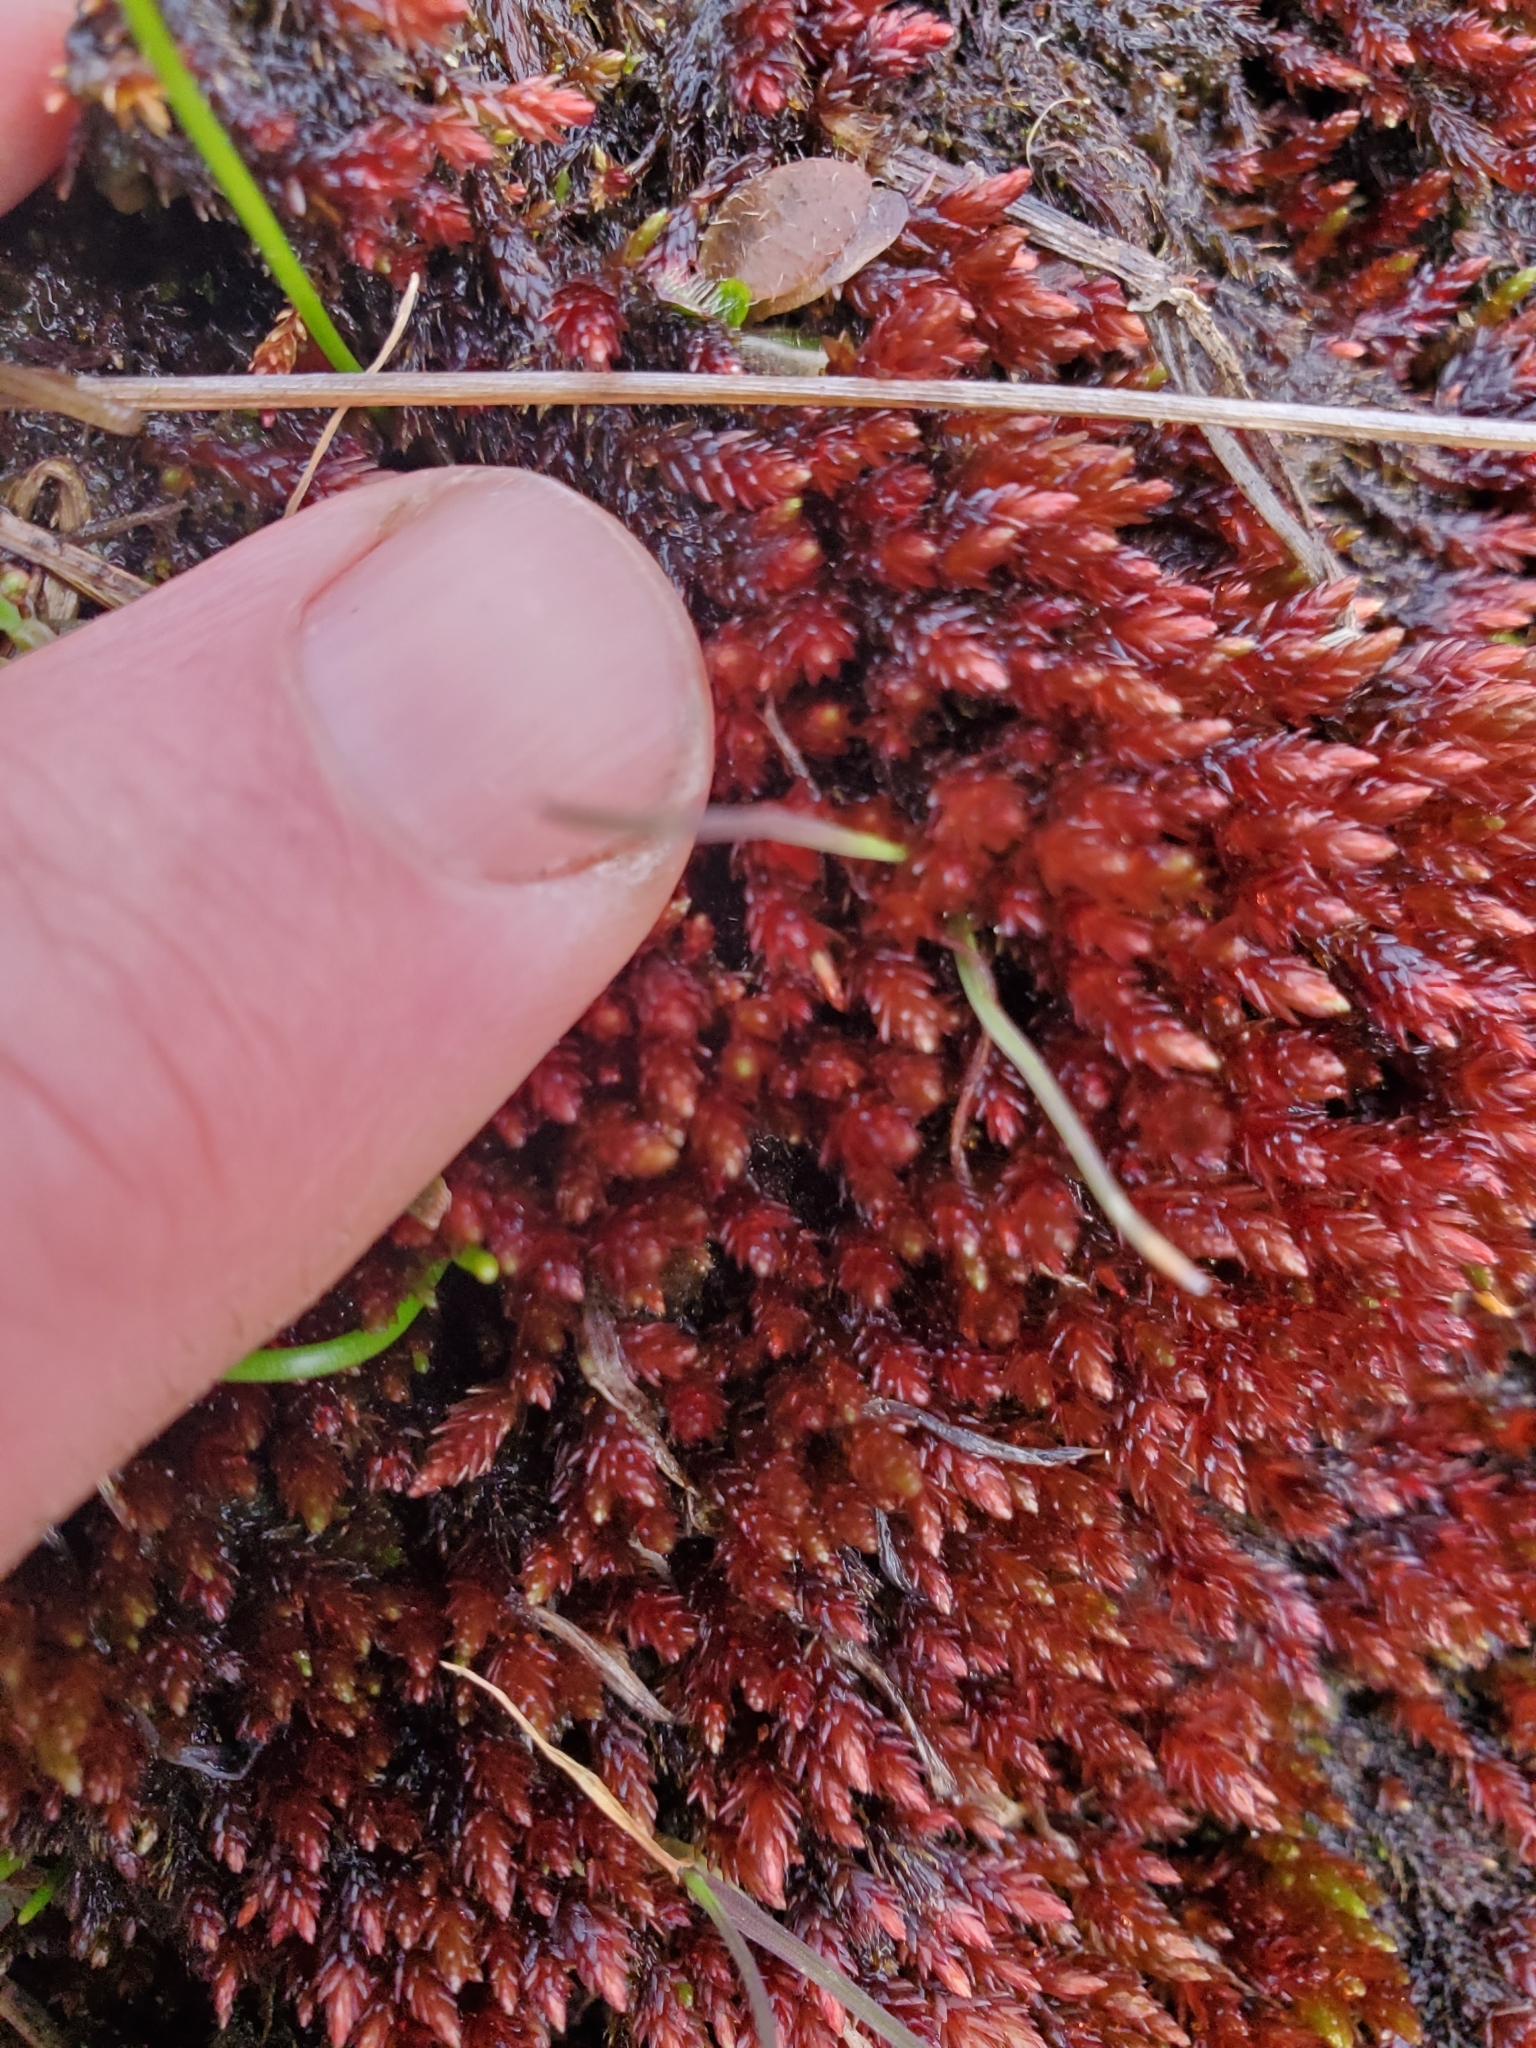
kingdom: Plantae
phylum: Bryophyta
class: Bryopsida
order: Bryales
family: Bryaceae
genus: Imbribryum
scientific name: Imbribryum miniatum
